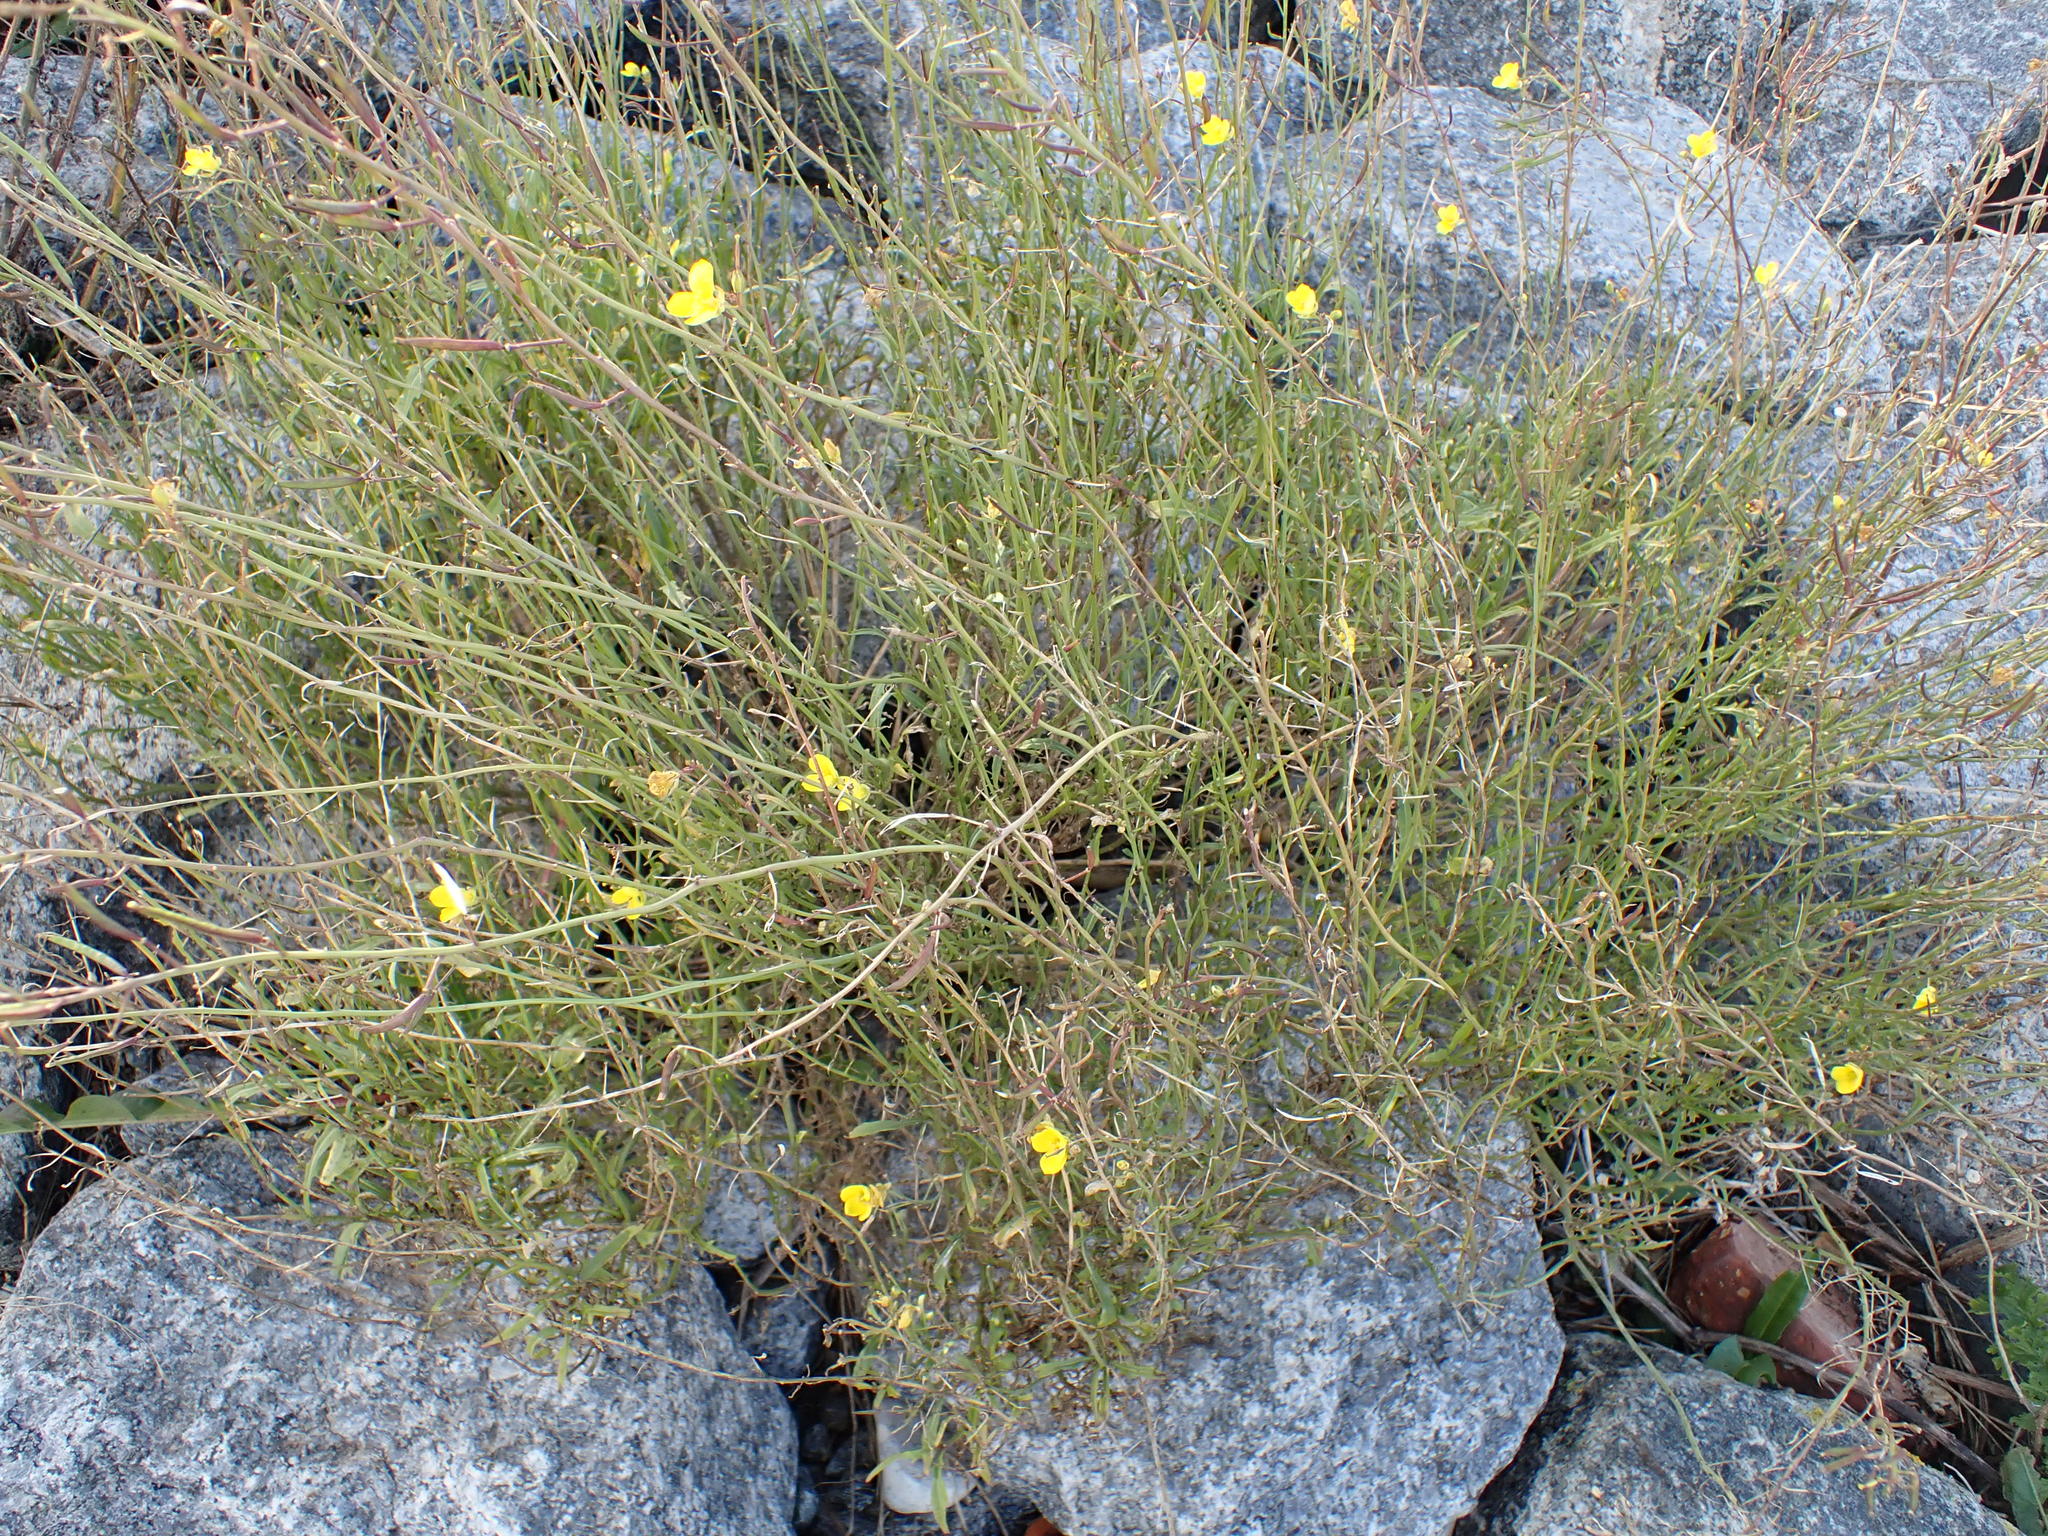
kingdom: Plantae
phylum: Tracheophyta
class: Magnoliopsida
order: Brassicales
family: Brassicaceae
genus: Diplotaxis
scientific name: Diplotaxis tenuifolia
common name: Perennial wall-rocket
